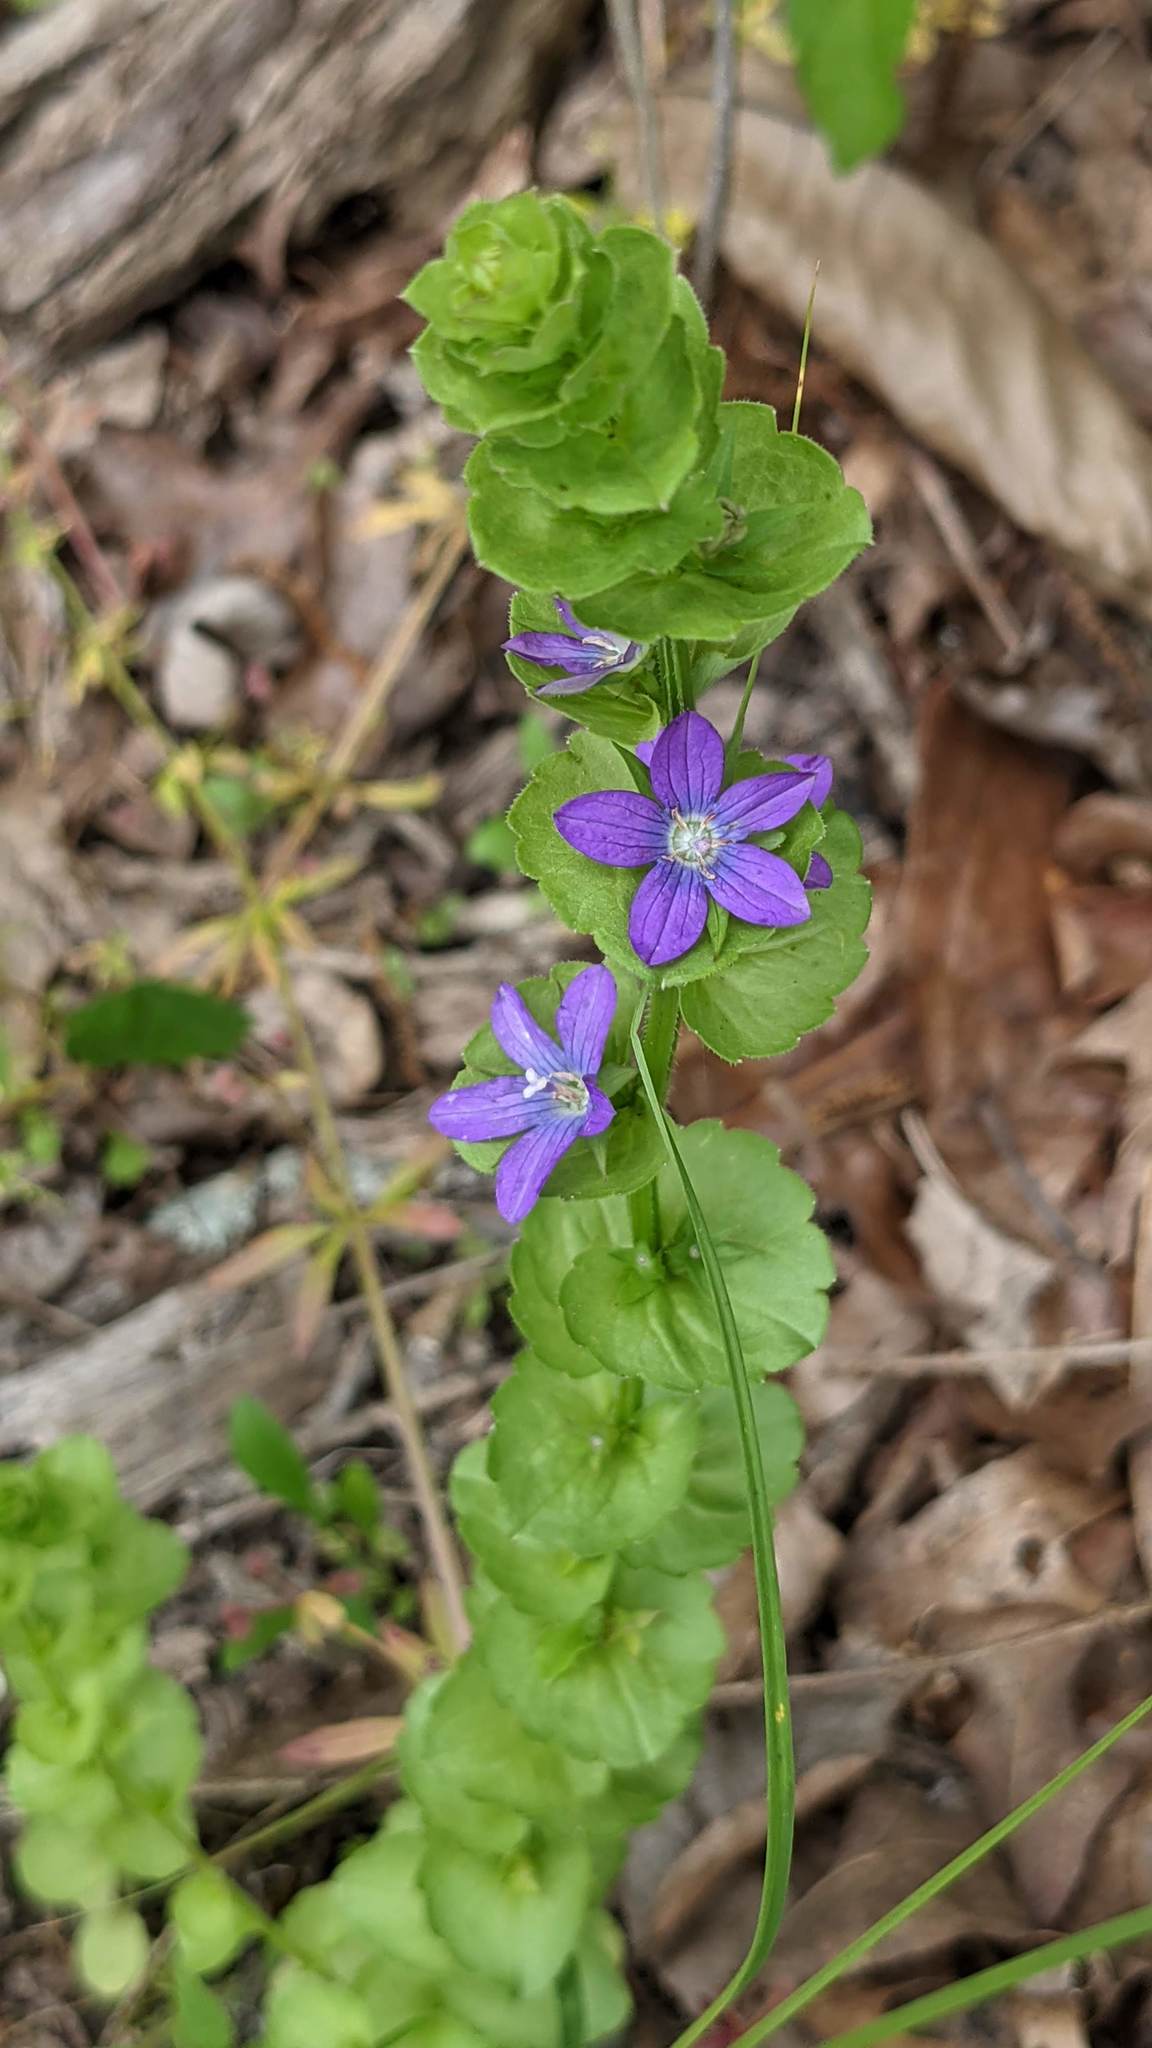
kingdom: Plantae
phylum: Tracheophyta
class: Magnoliopsida
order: Asterales
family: Campanulaceae
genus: Triodanis
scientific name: Triodanis perfoliata
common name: Clasping venus' looking-glass
